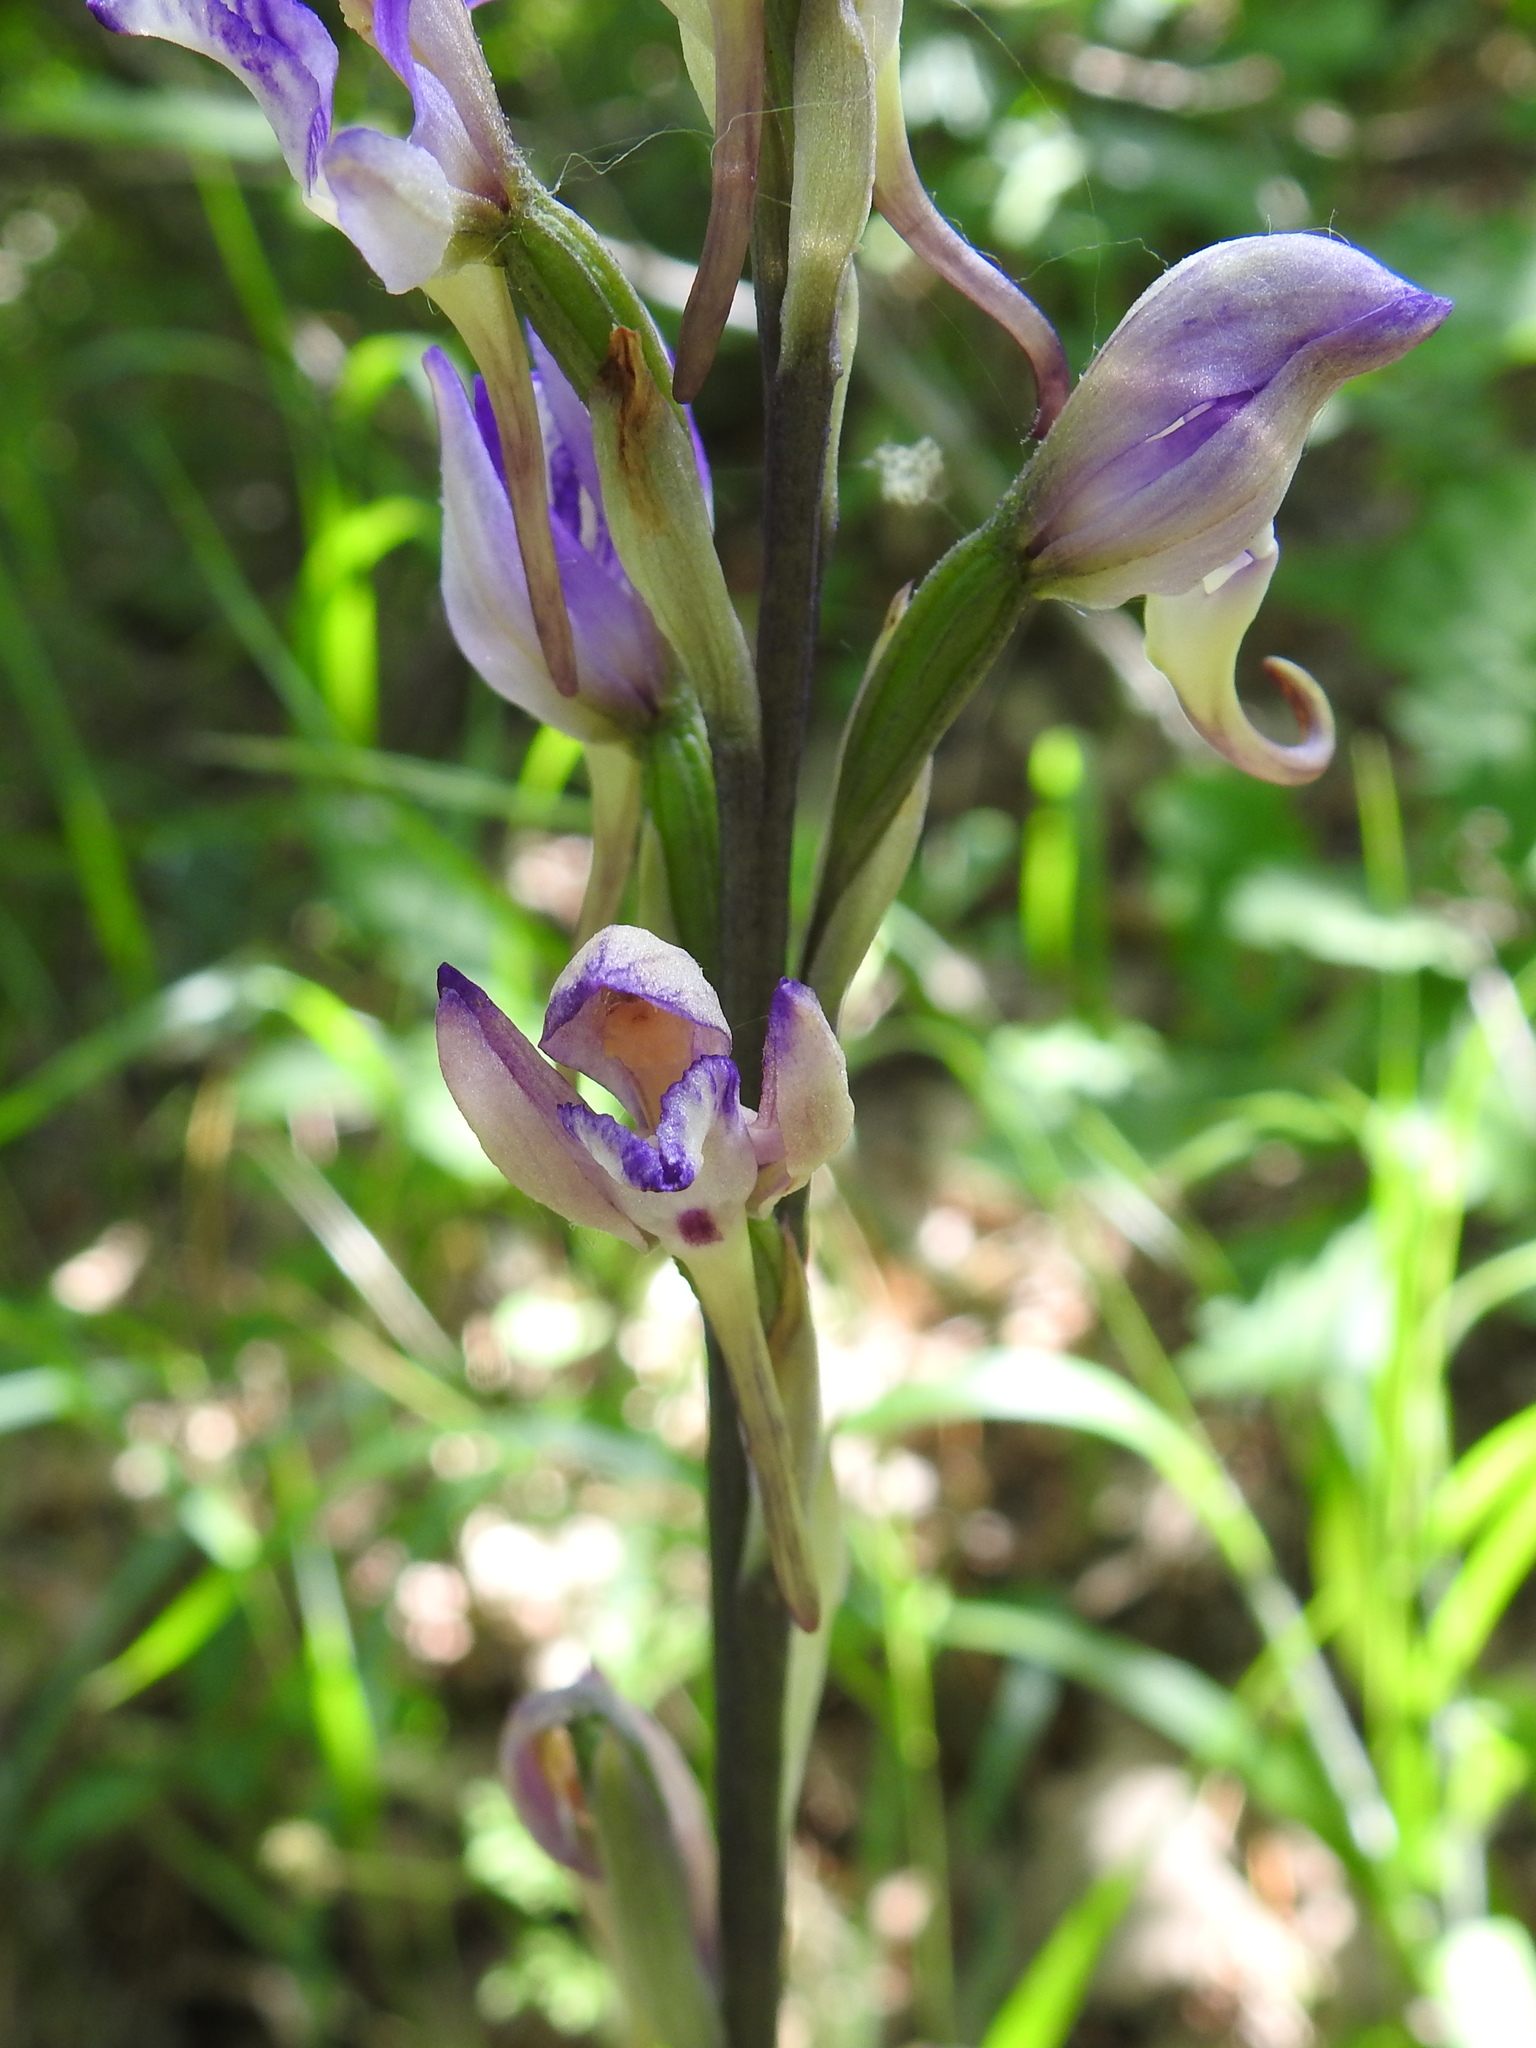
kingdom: Plantae
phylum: Tracheophyta
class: Liliopsida
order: Asparagales
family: Orchidaceae
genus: Limodorum
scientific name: Limodorum abortivum
